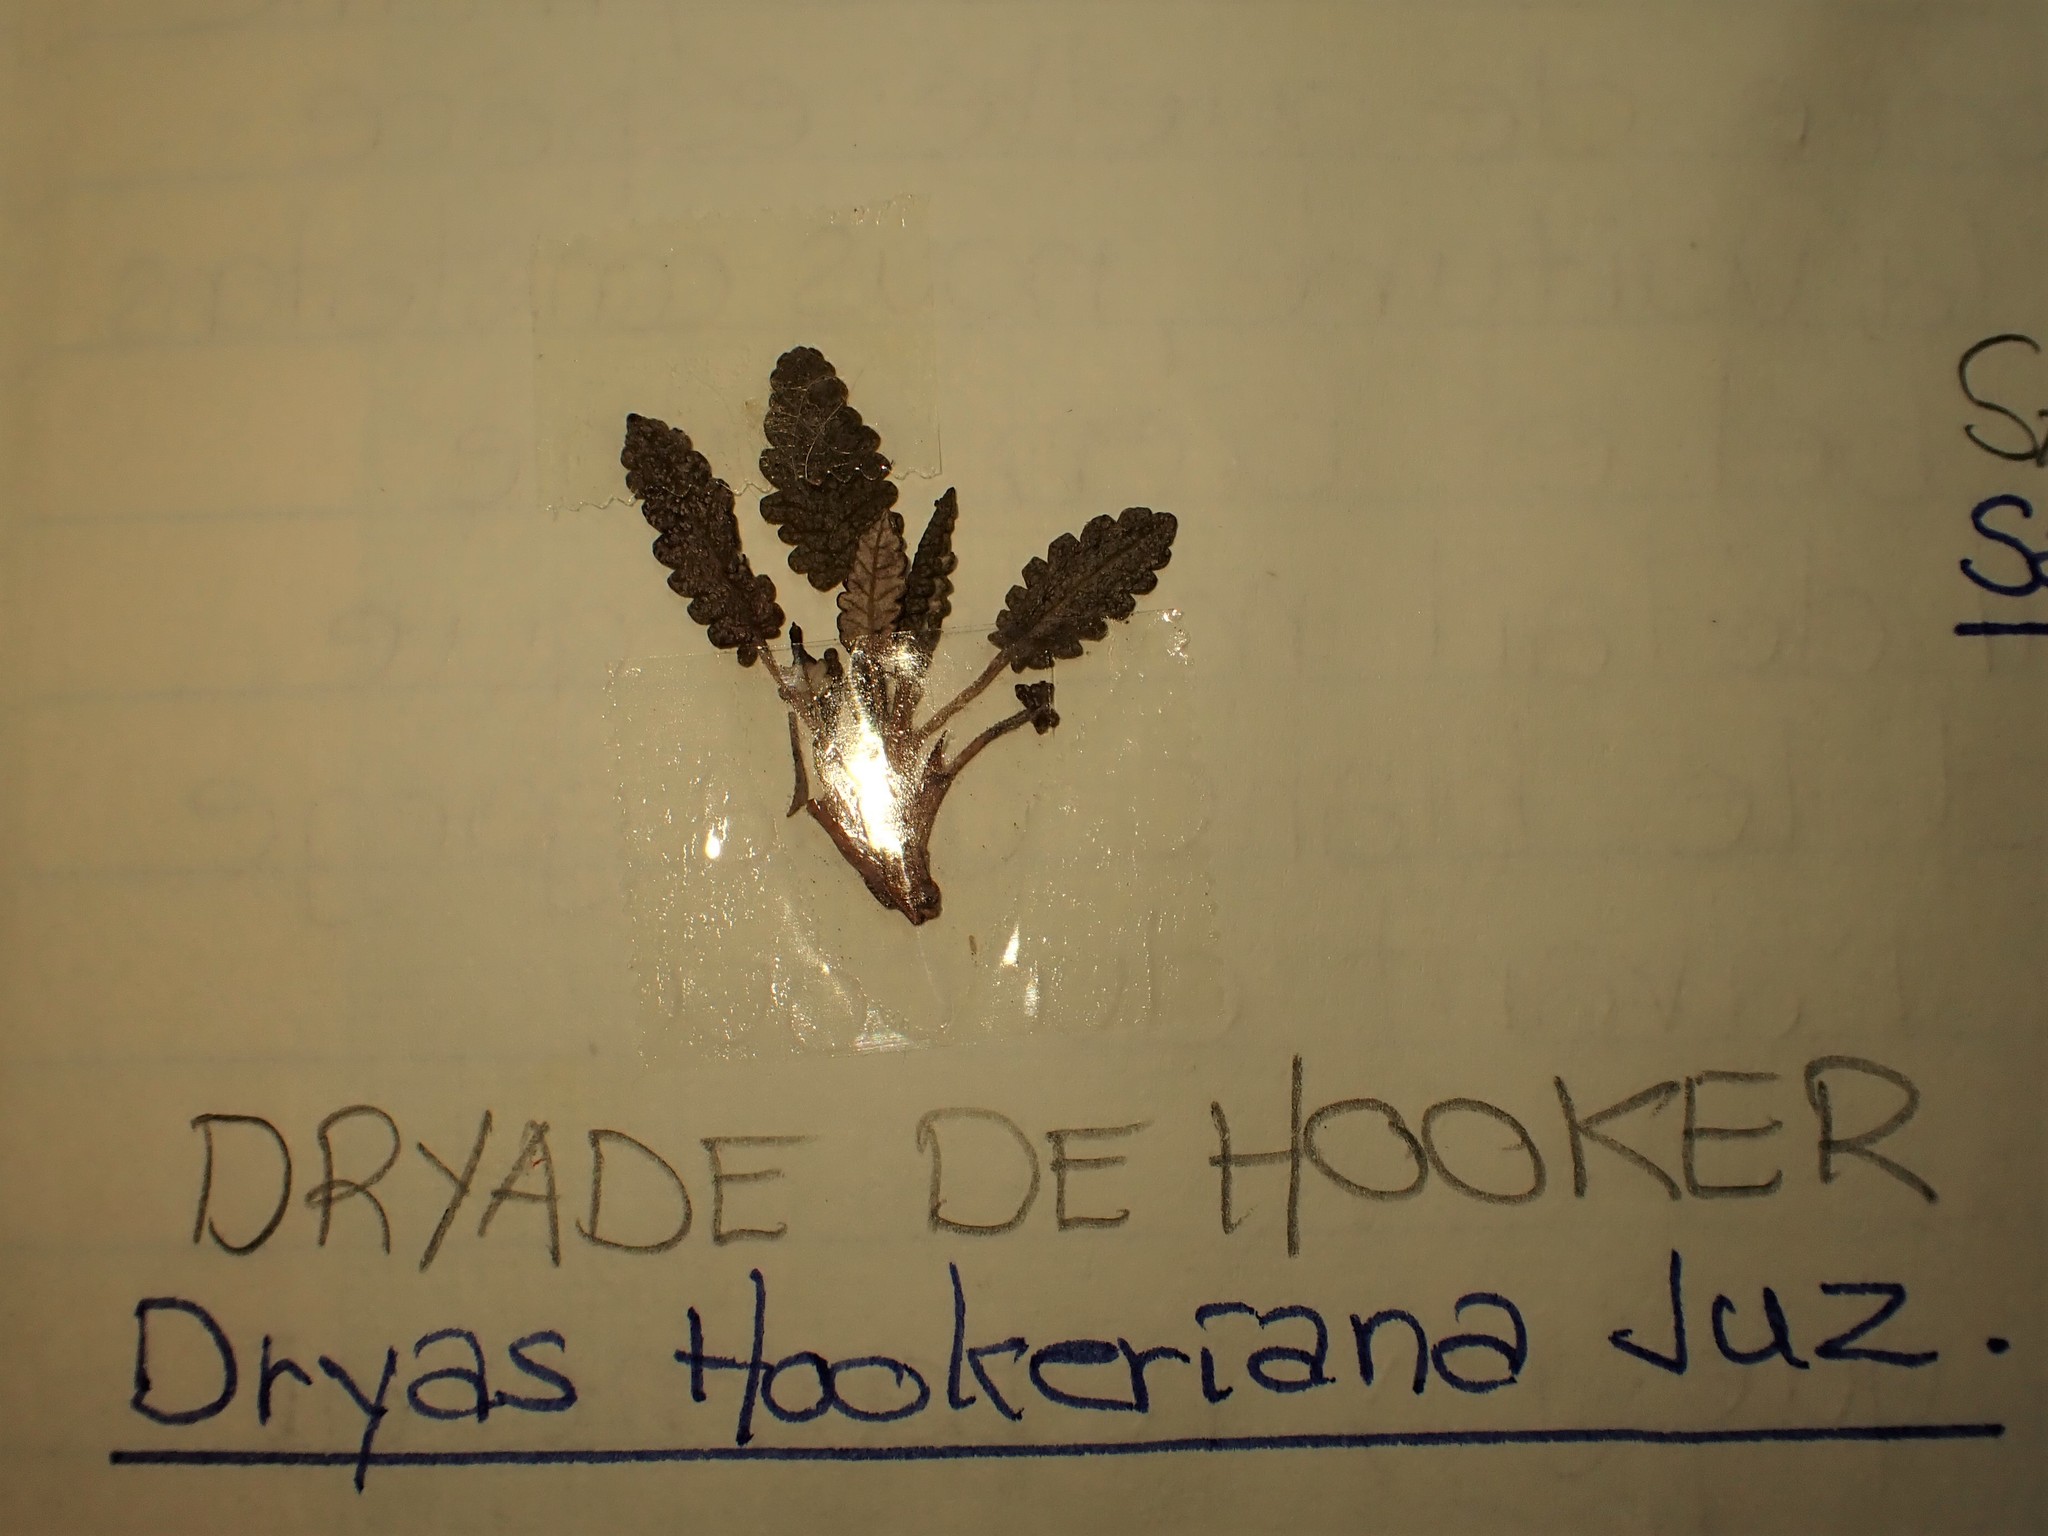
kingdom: Plantae
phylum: Tracheophyta
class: Magnoliopsida
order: Rosales
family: Rosaceae
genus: Dryas
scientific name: Dryas octopetala
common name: Eight-petal mountain-avens
